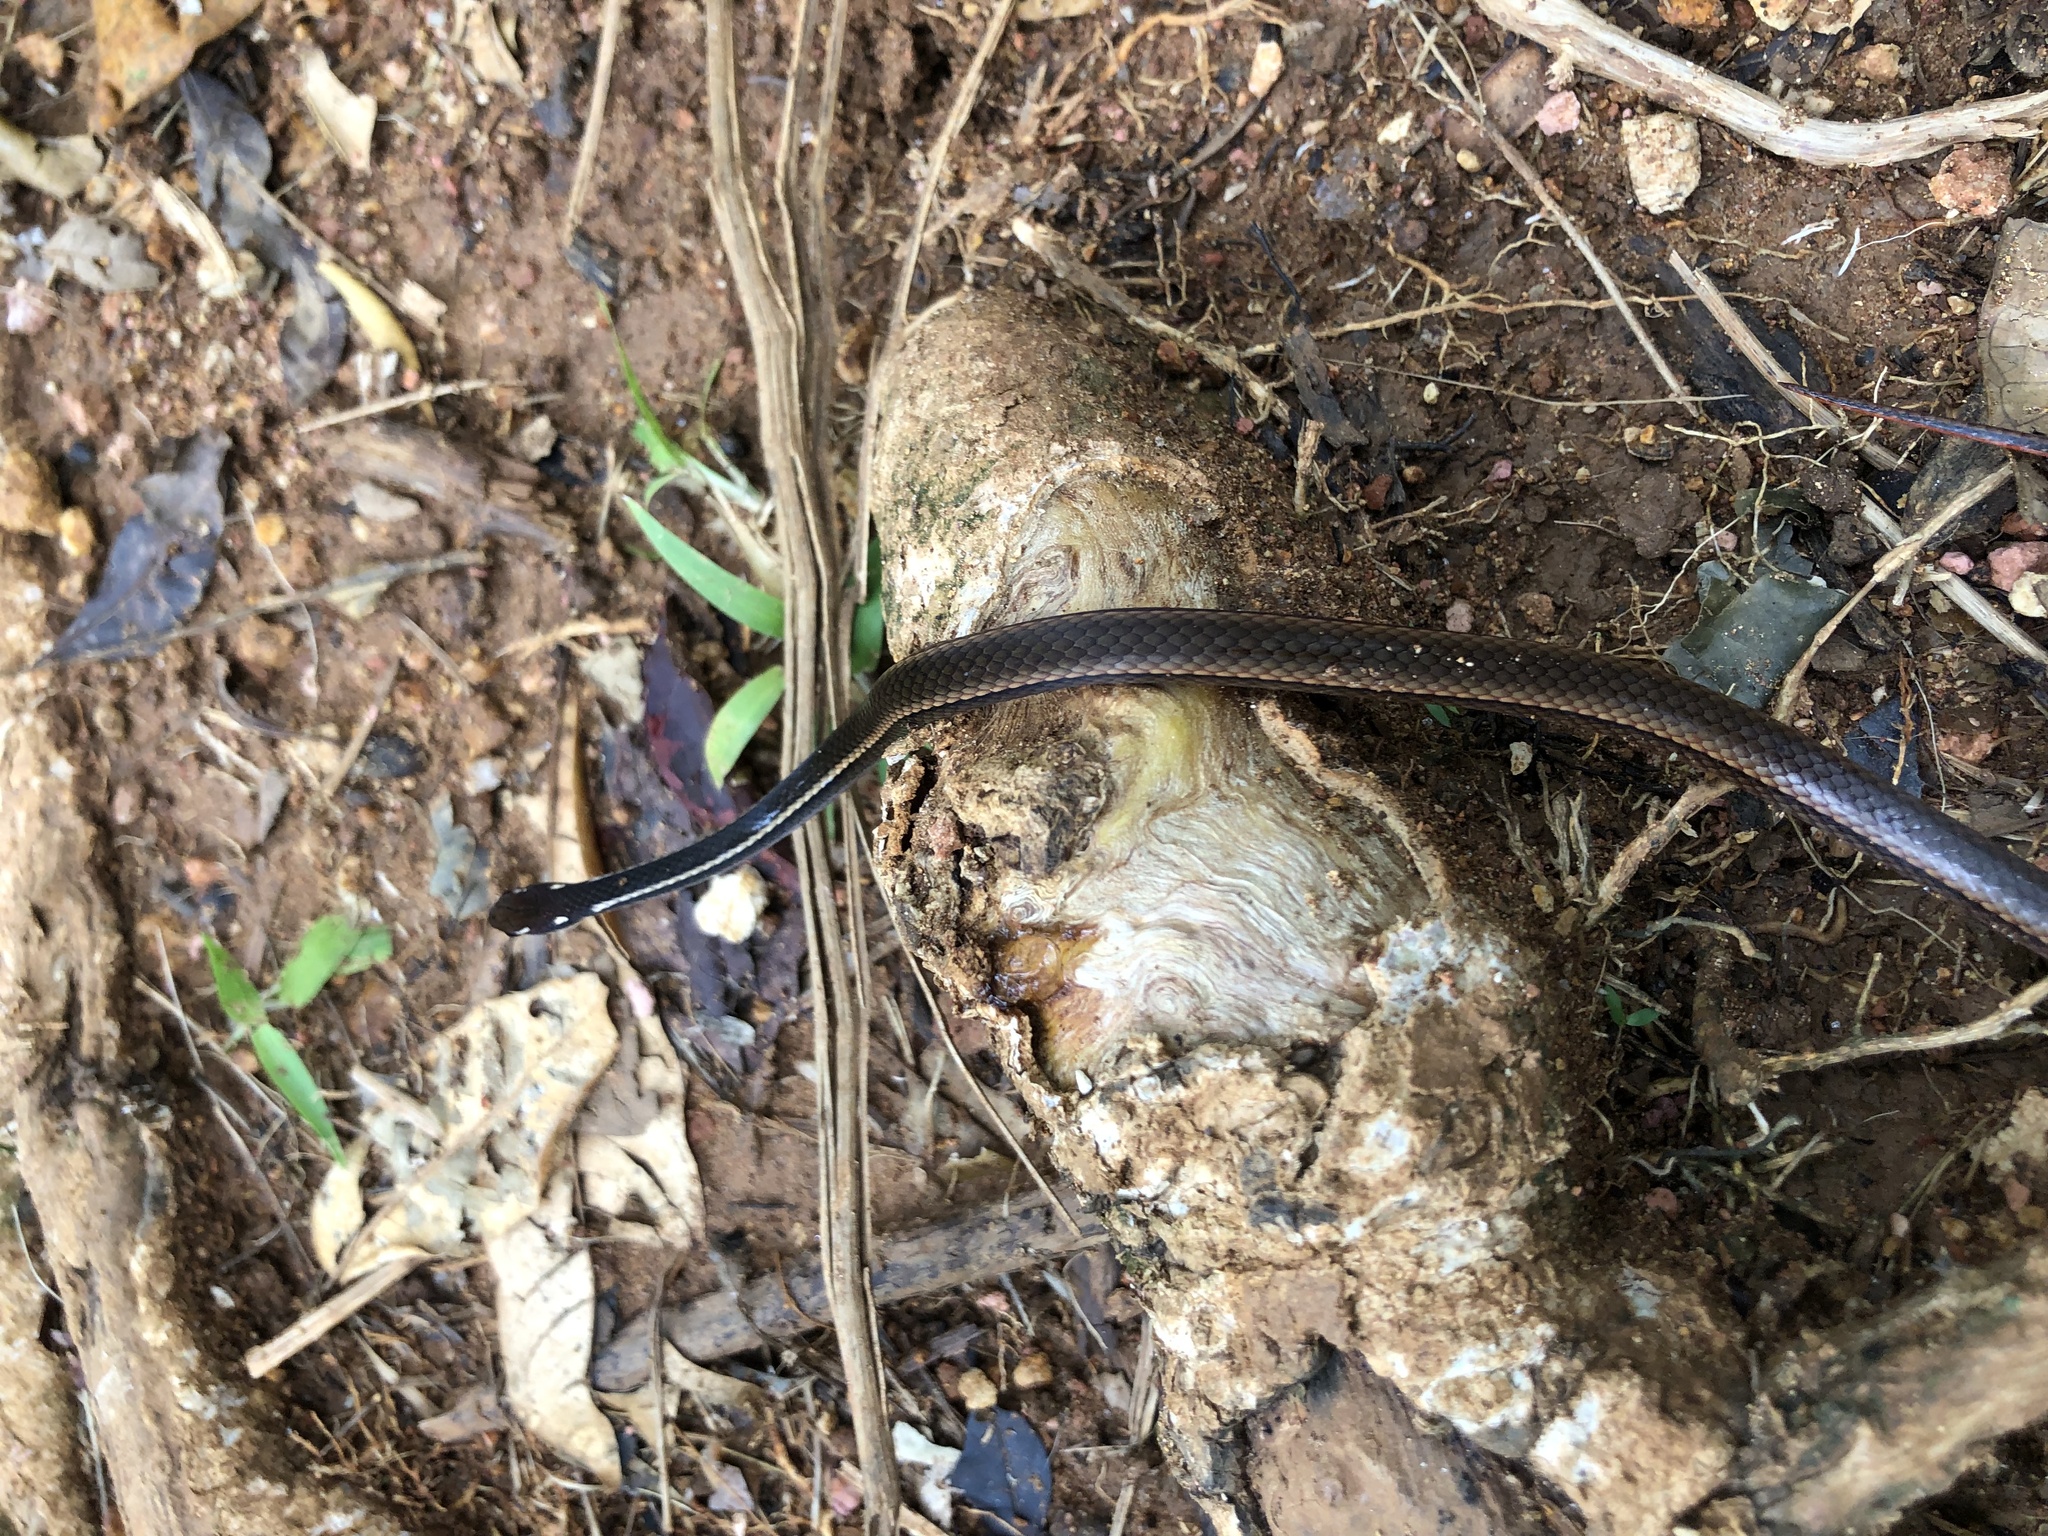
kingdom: Animalia
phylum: Chordata
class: Squamata
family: Colubridae
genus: Rhadinaea
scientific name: Rhadinaea decorata
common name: Adorned graceful brown snake
